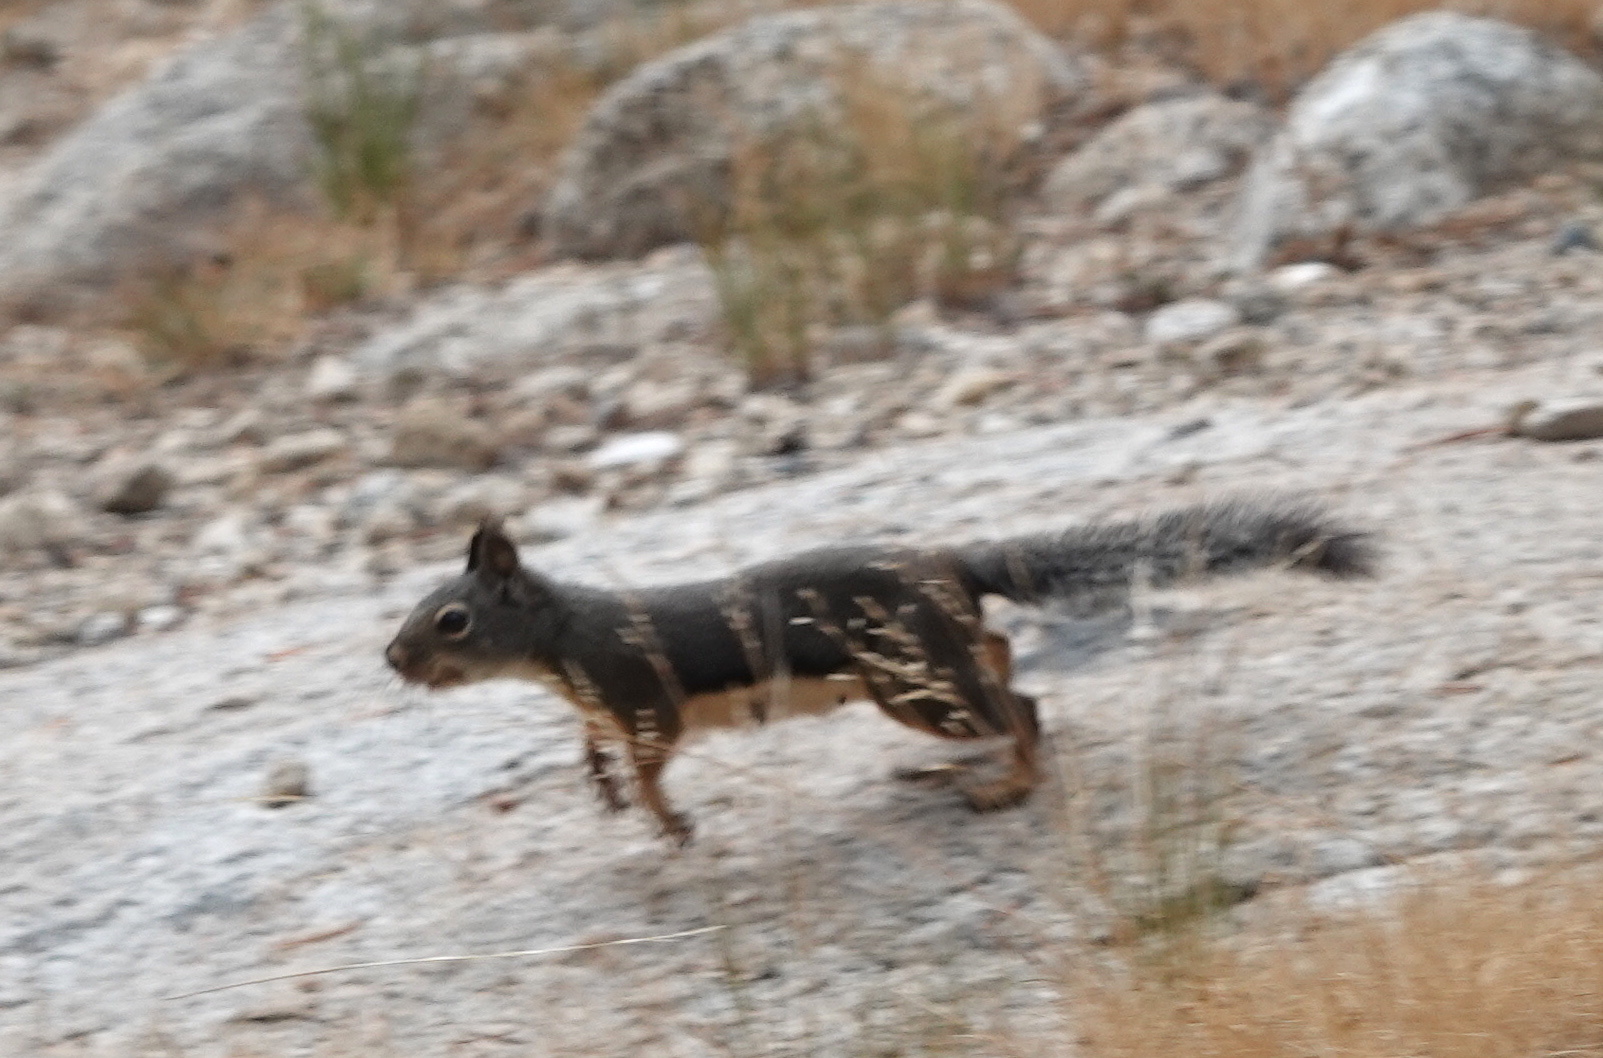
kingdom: Animalia
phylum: Chordata
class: Mammalia
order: Rodentia
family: Sciuridae
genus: Tamiasciurus
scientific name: Tamiasciurus douglasii
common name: Douglas's squirrel
